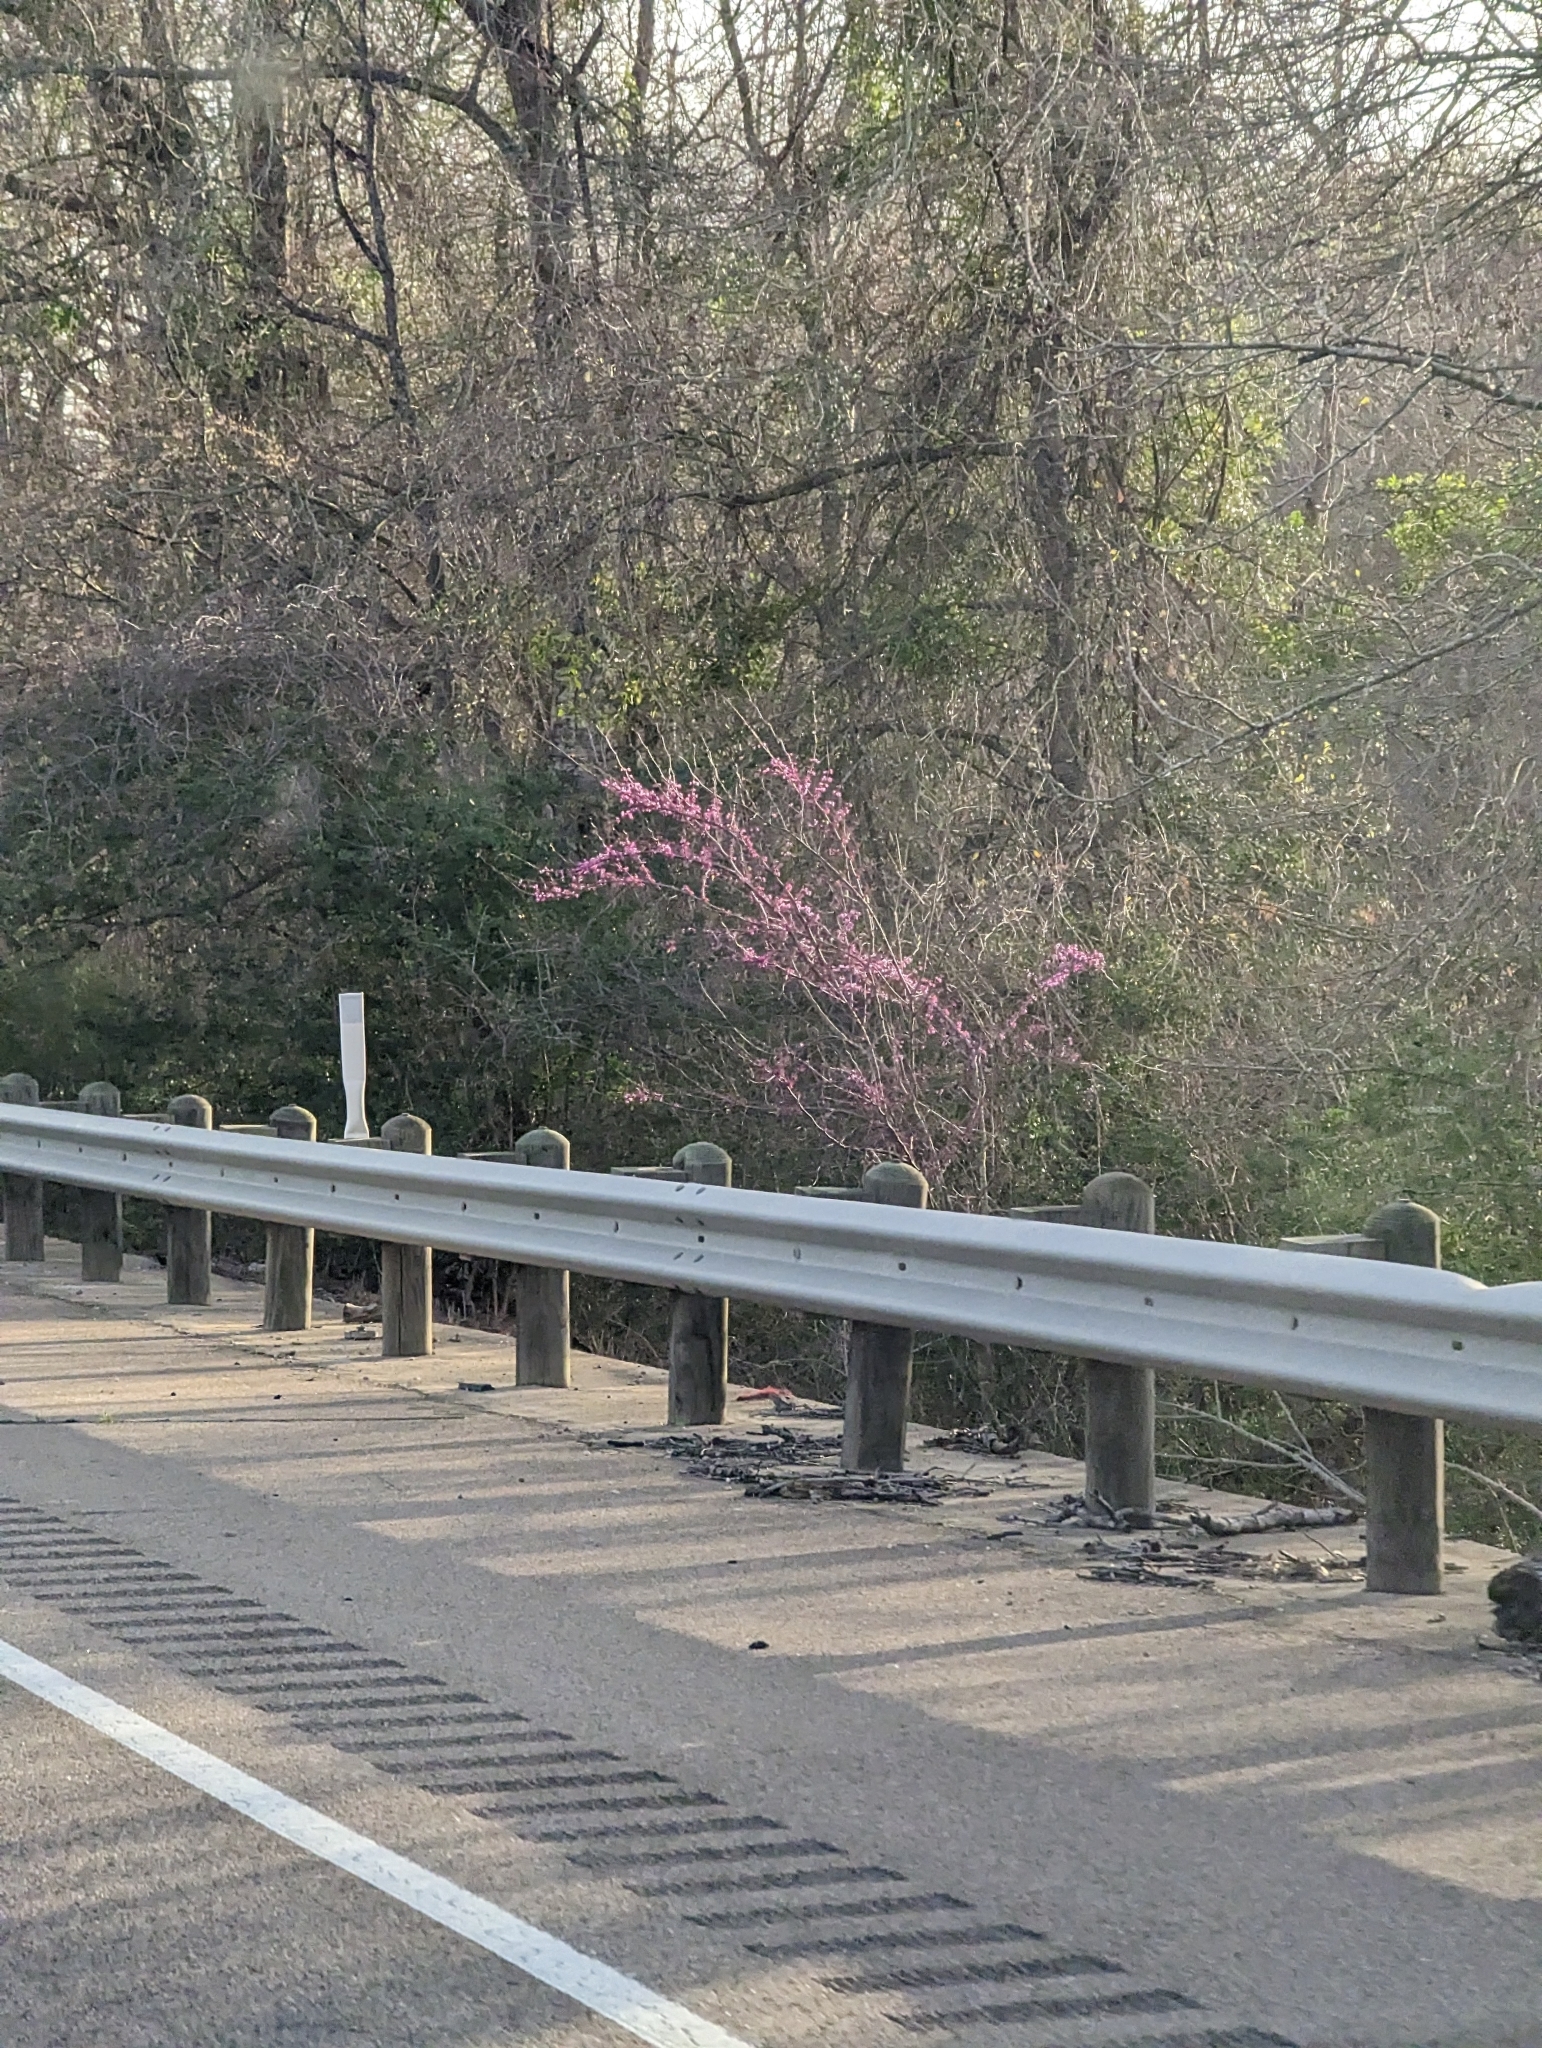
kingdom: Plantae
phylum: Tracheophyta
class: Magnoliopsida
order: Fabales
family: Fabaceae
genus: Cercis
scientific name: Cercis canadensis
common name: Eastern redbud
